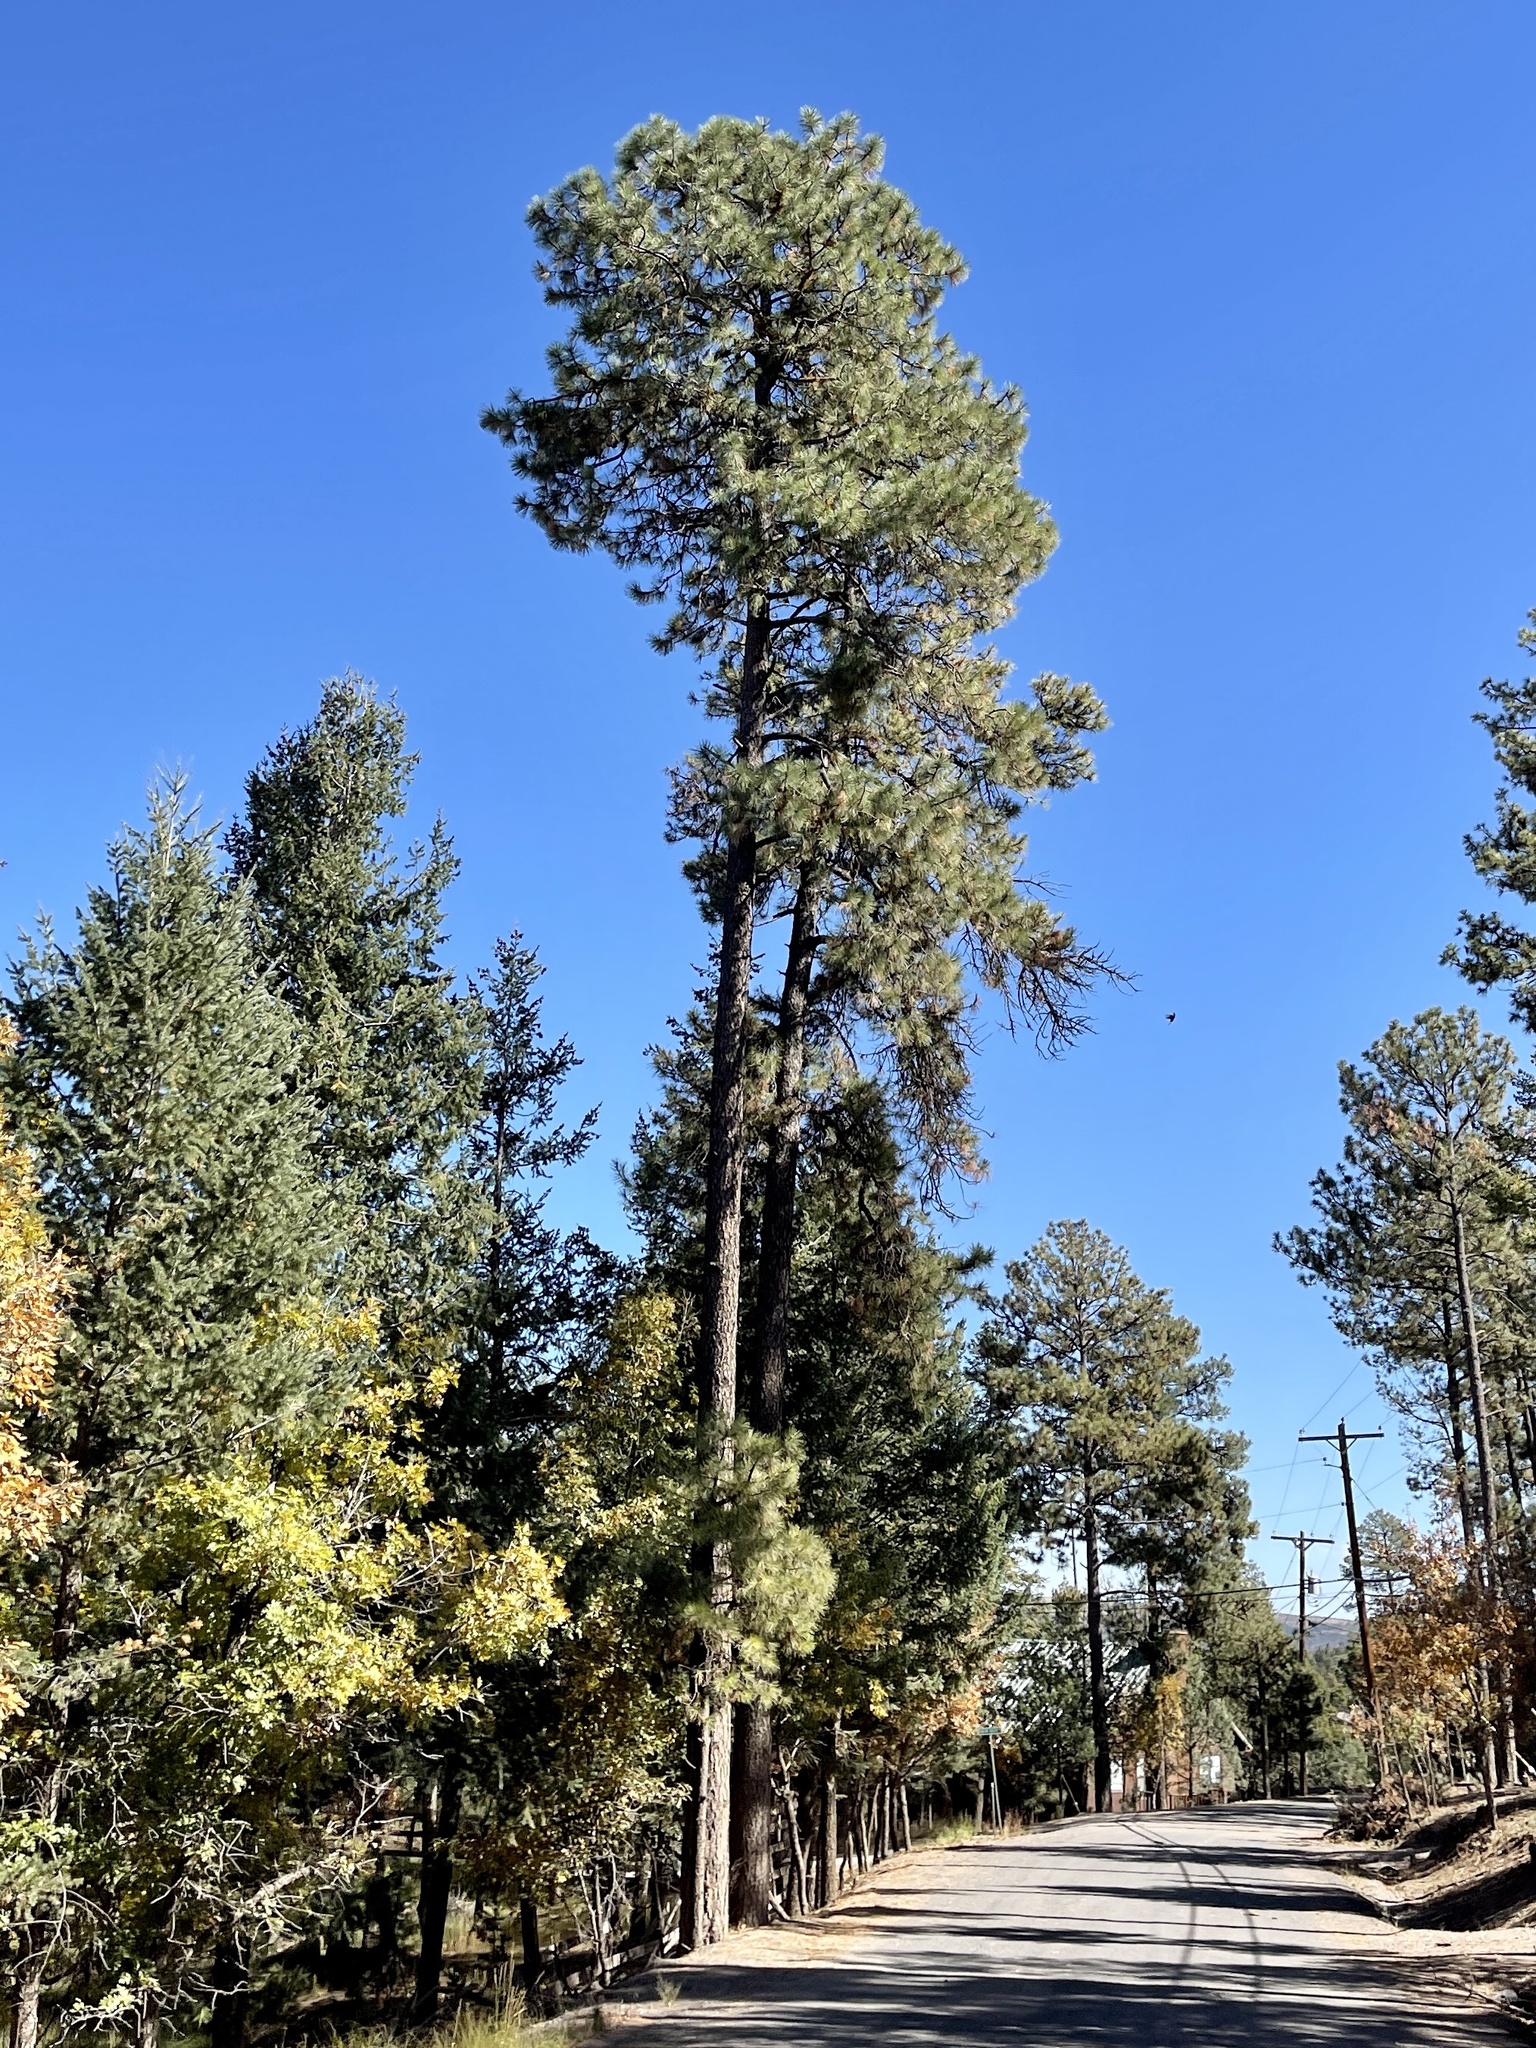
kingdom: Plantae
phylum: Tracheophyta
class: Pinopsida
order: Pinales
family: Pinaceae
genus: Pinus
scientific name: Pinus ponderosa
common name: Western yellow-pine
